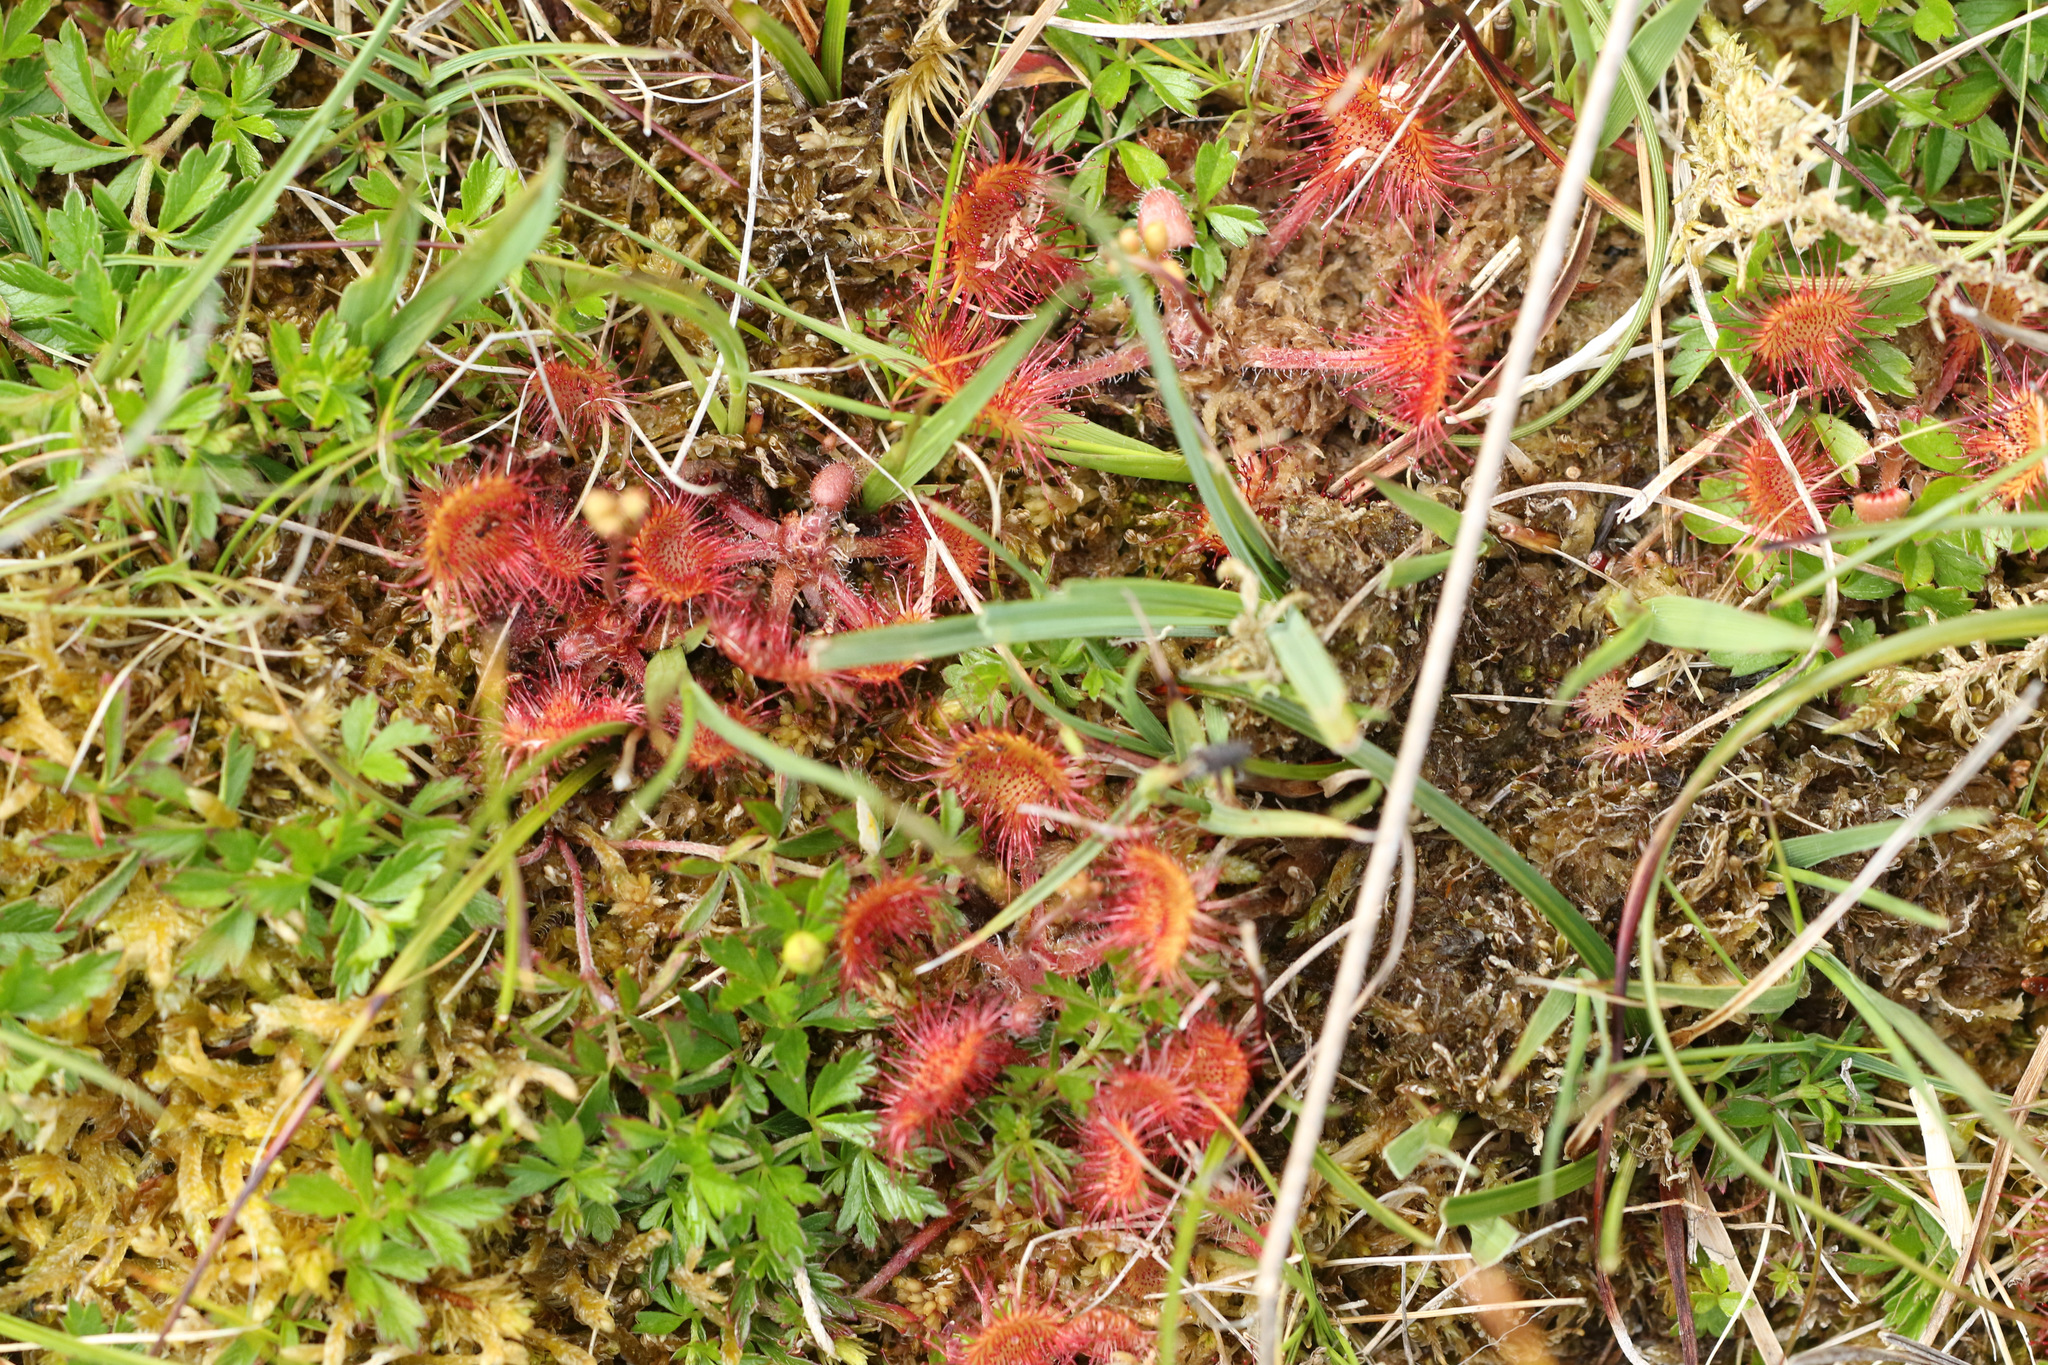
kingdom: Plantae
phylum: Tracheophyta
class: Magnoliopsida
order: Caryophyllales
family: Droseraceae
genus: Drosera
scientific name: Drosera rotundifolia
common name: Round-leaved sundew
